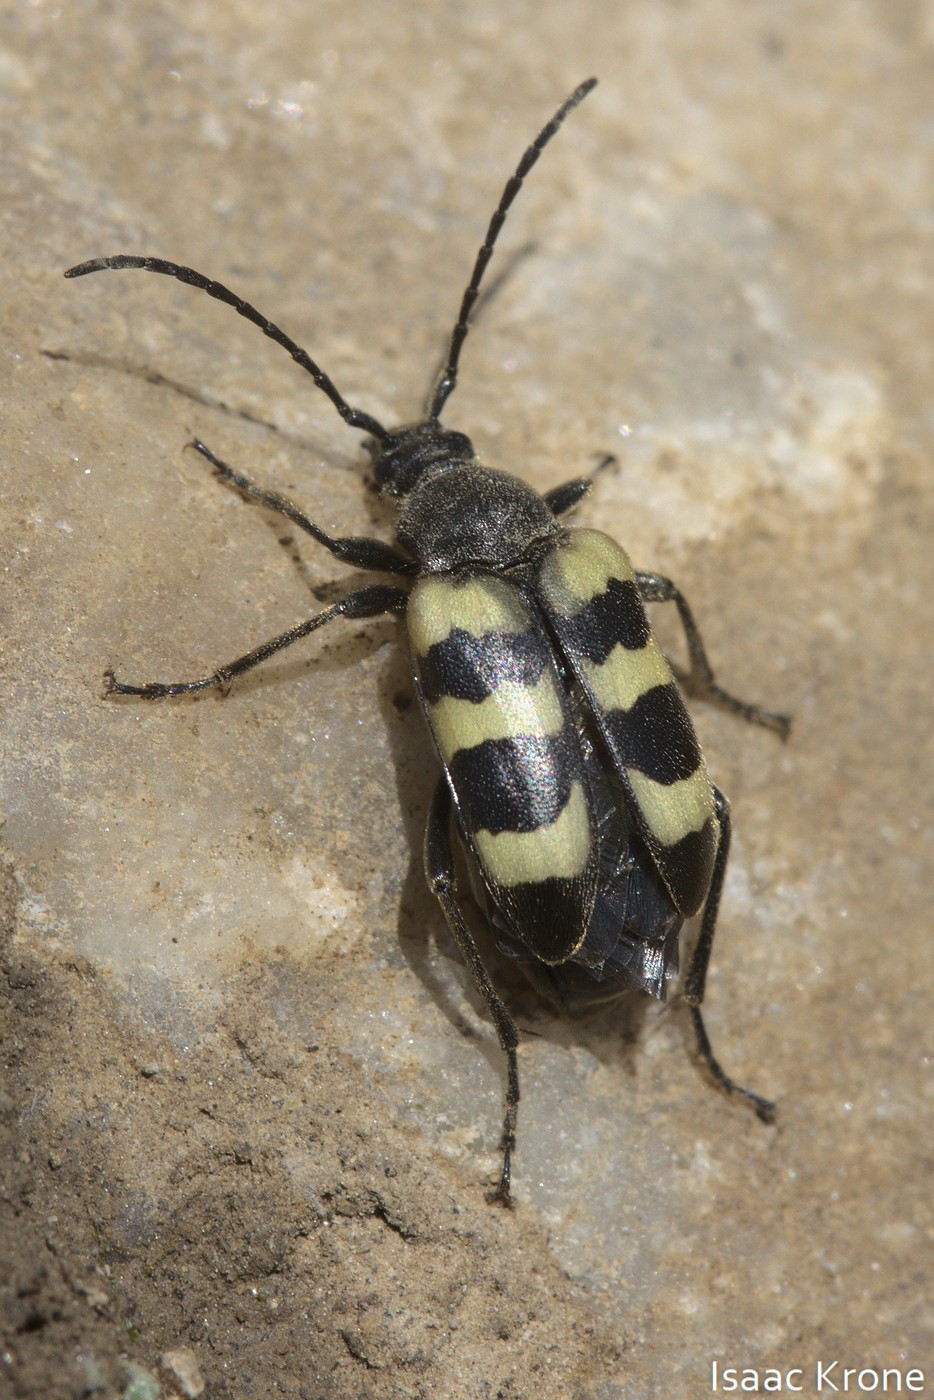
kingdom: Animalia
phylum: Arthropoda
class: Insecta
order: Coleoptera
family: Cerambycidae
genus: Judolia
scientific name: Judolia instabilis
